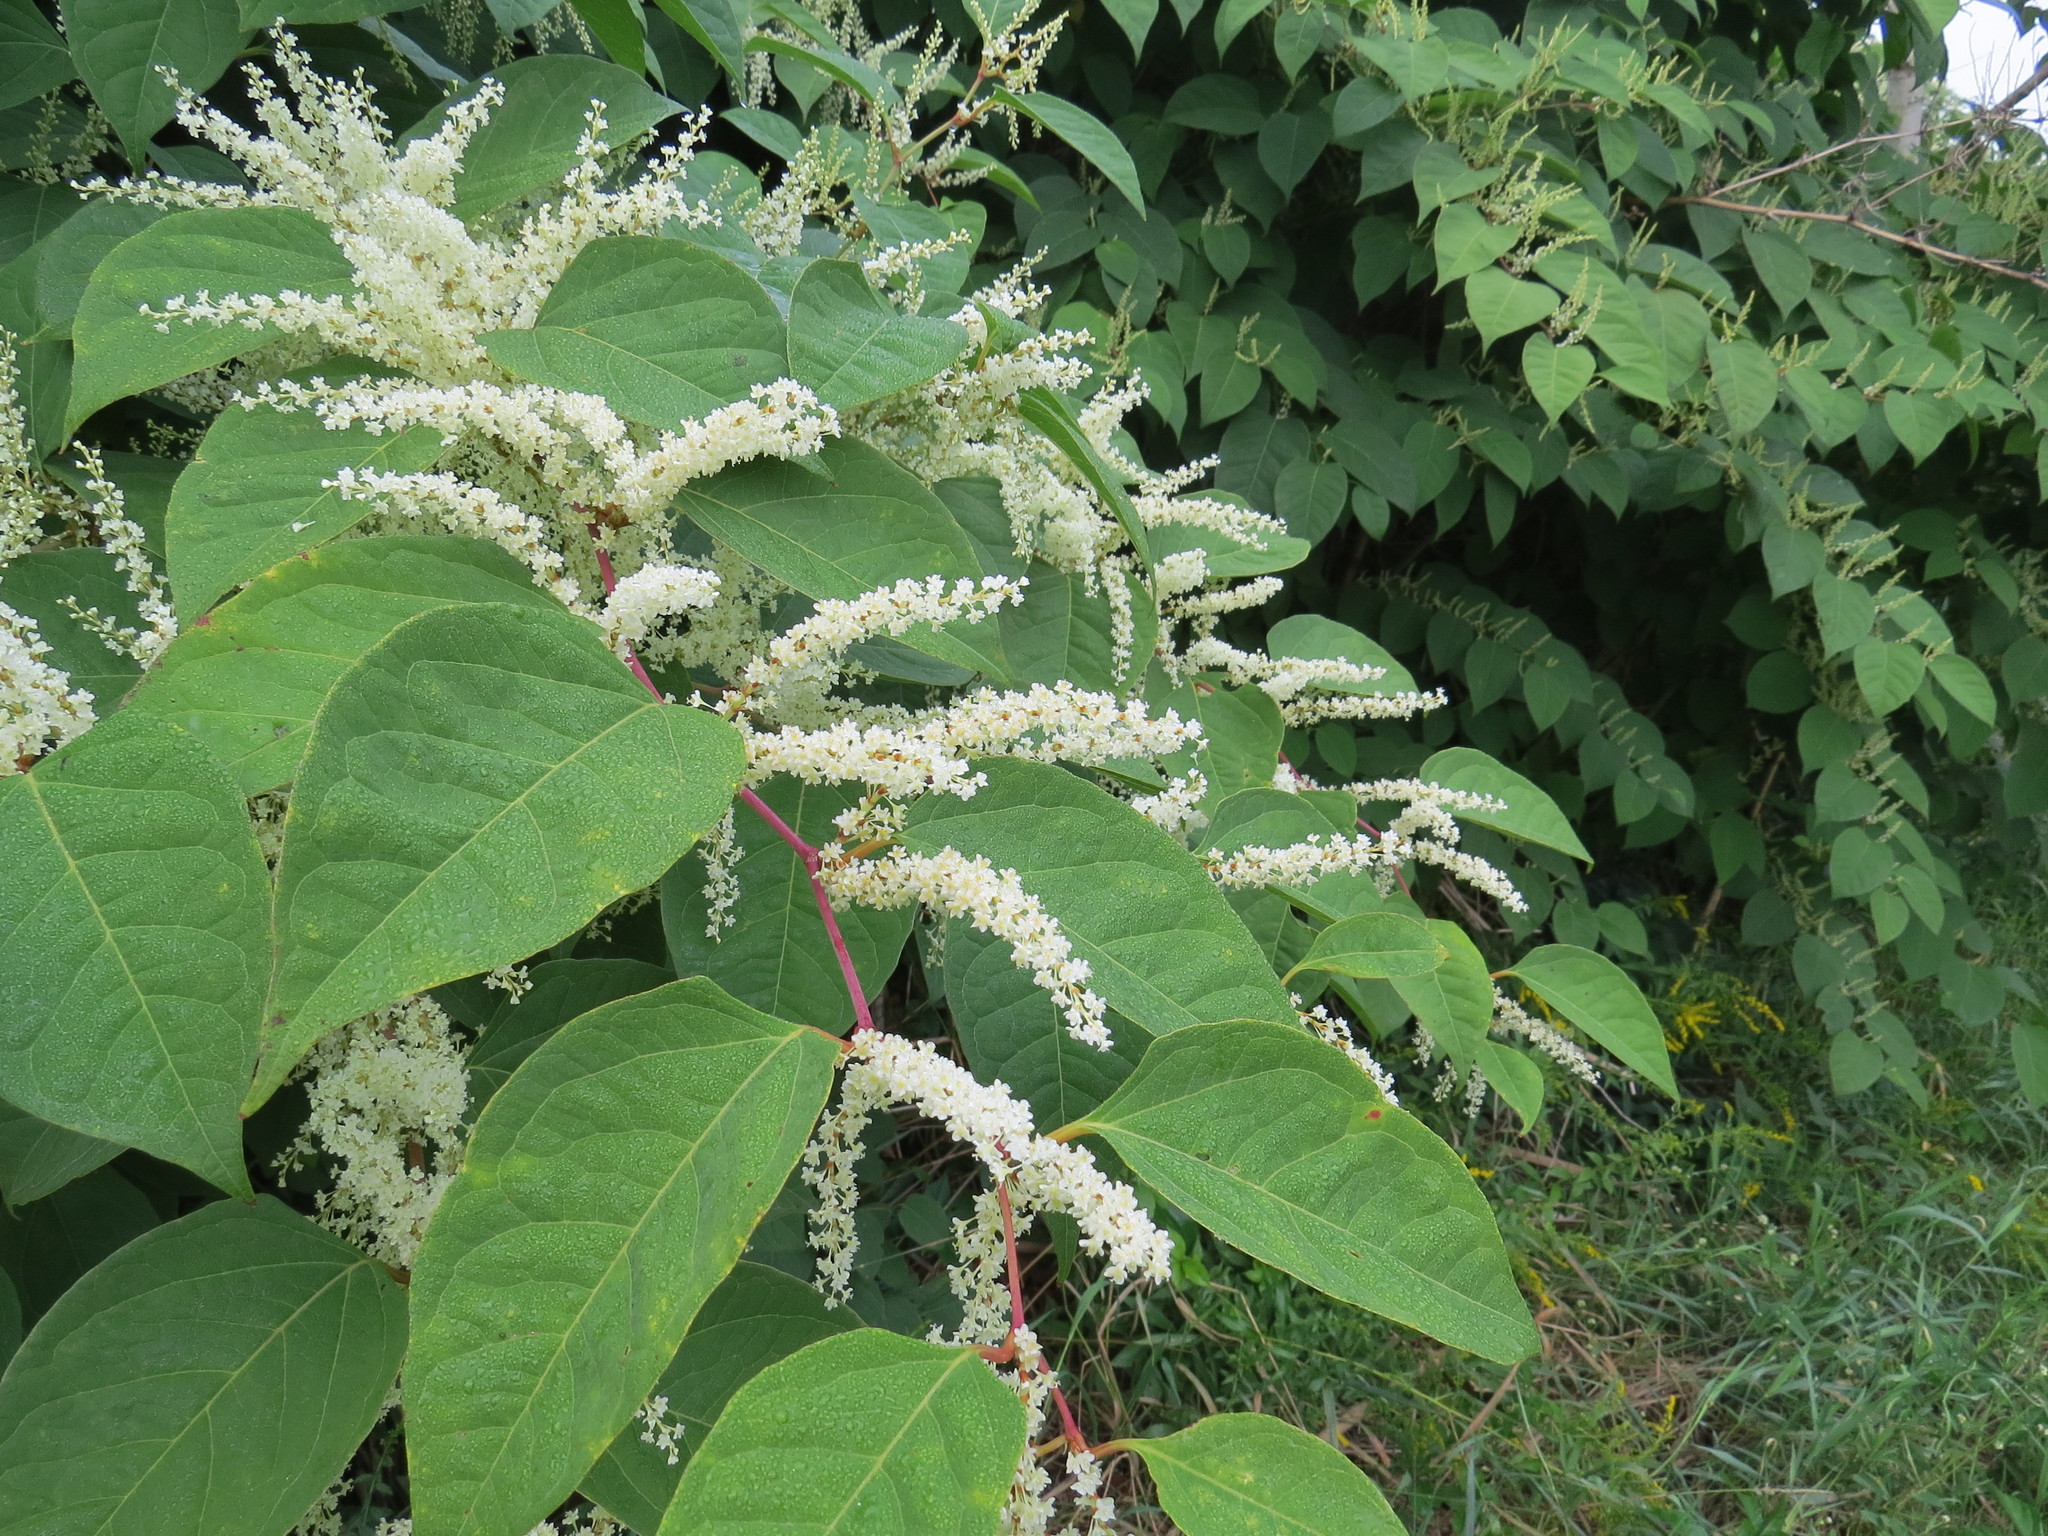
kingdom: Plantae
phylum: Tracheophyta
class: Magnoliopsida
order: Caryophyllales
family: Polygonaceae
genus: Reynoutria
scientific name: Reynoutria japonica
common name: Japanese knotweed
